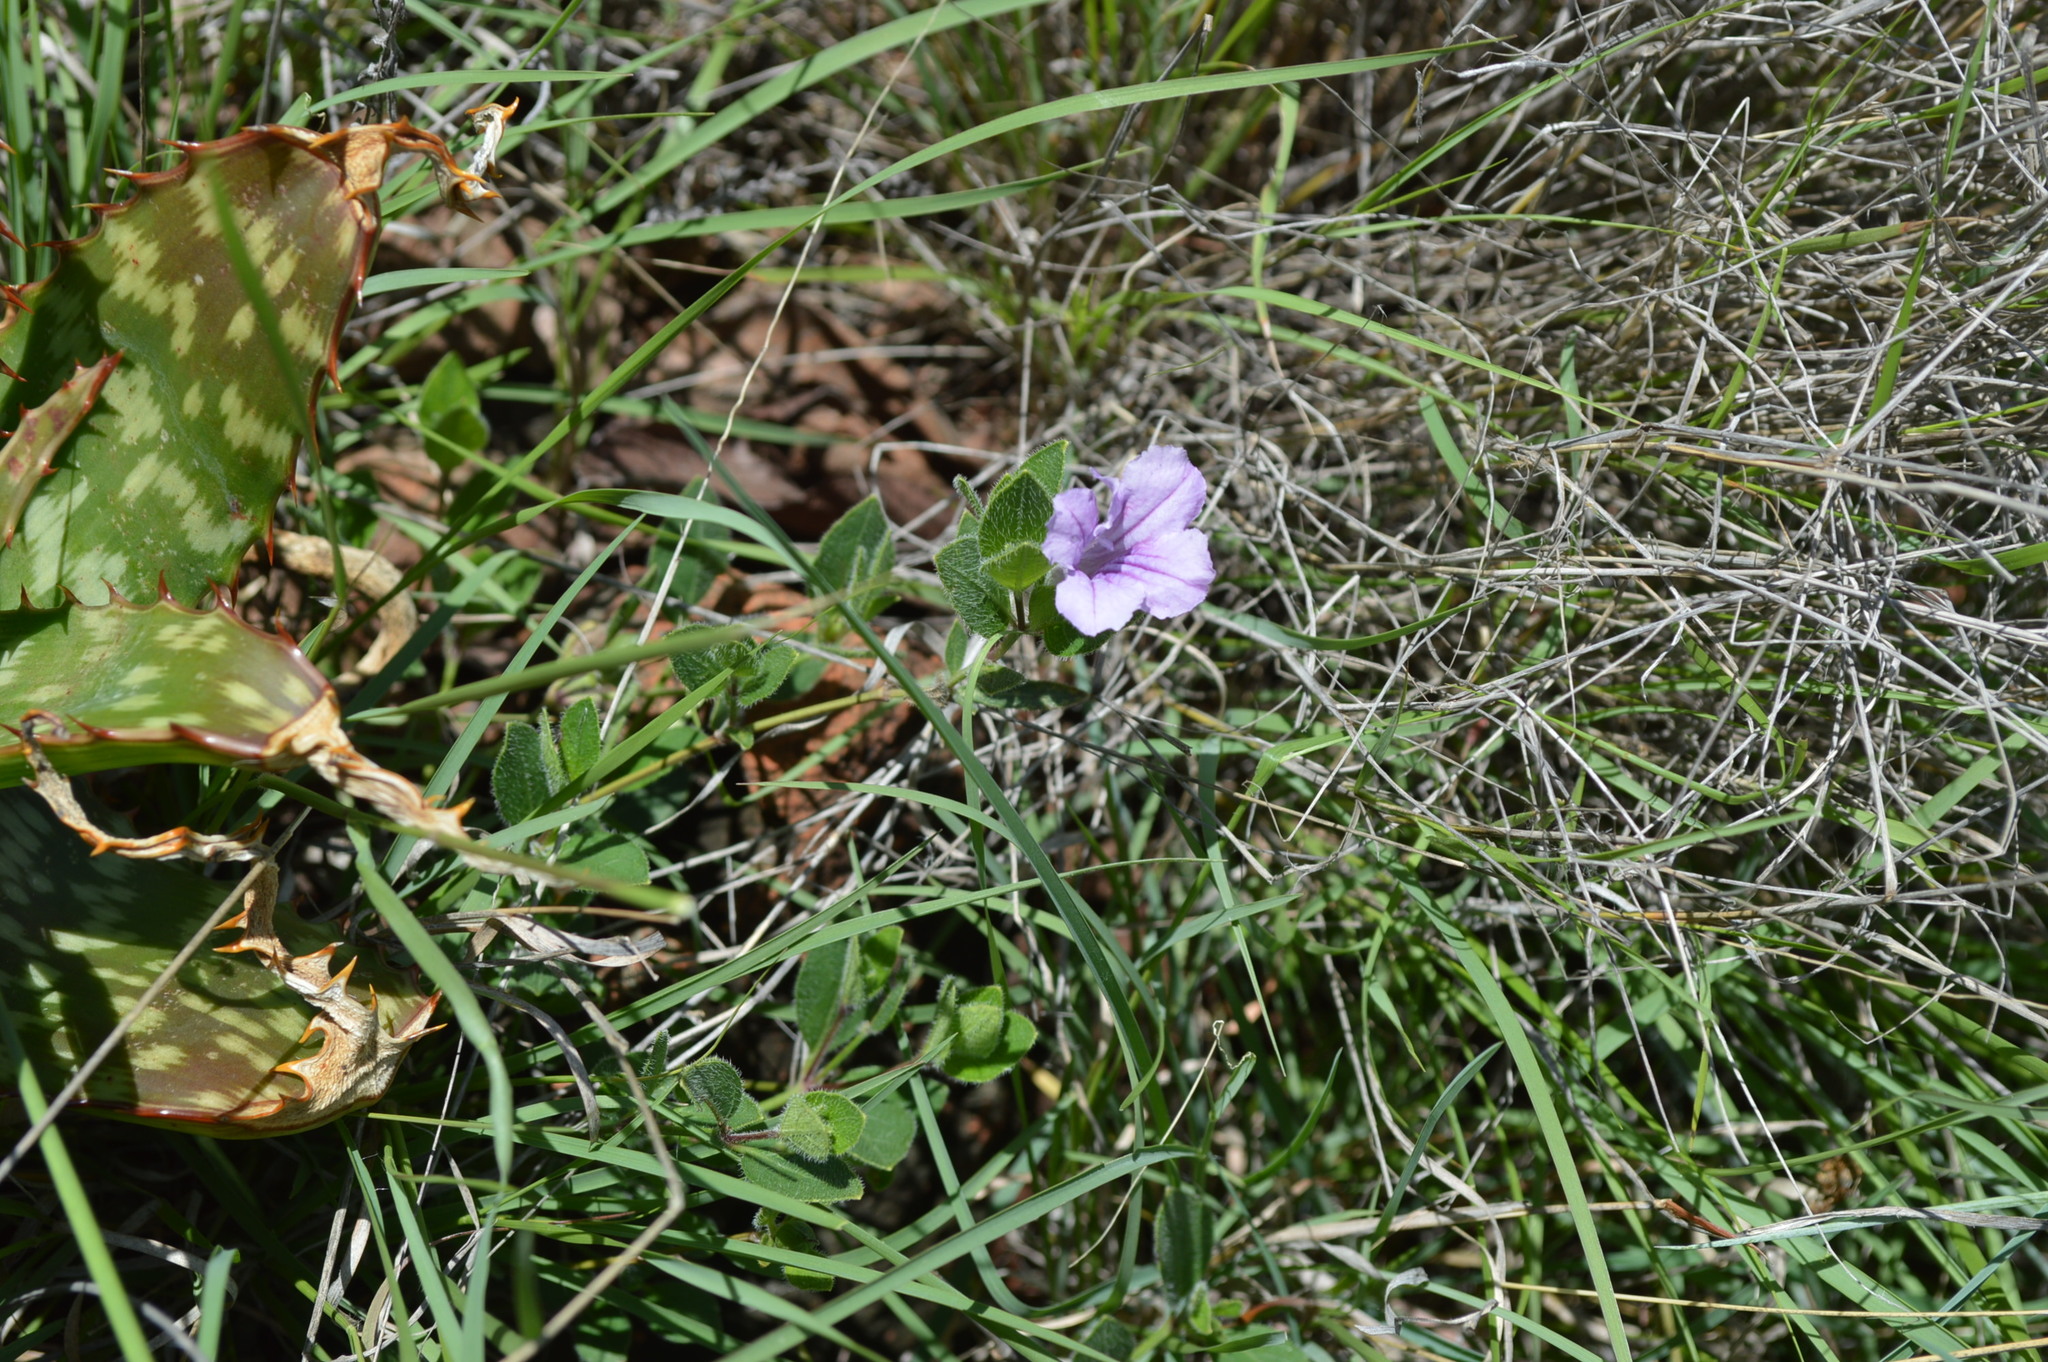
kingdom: Plantae
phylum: Tracheophyta
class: Magnoliopsida
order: Lamiales
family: Acanthaceae
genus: Ruellia
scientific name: Ruellia cordata
